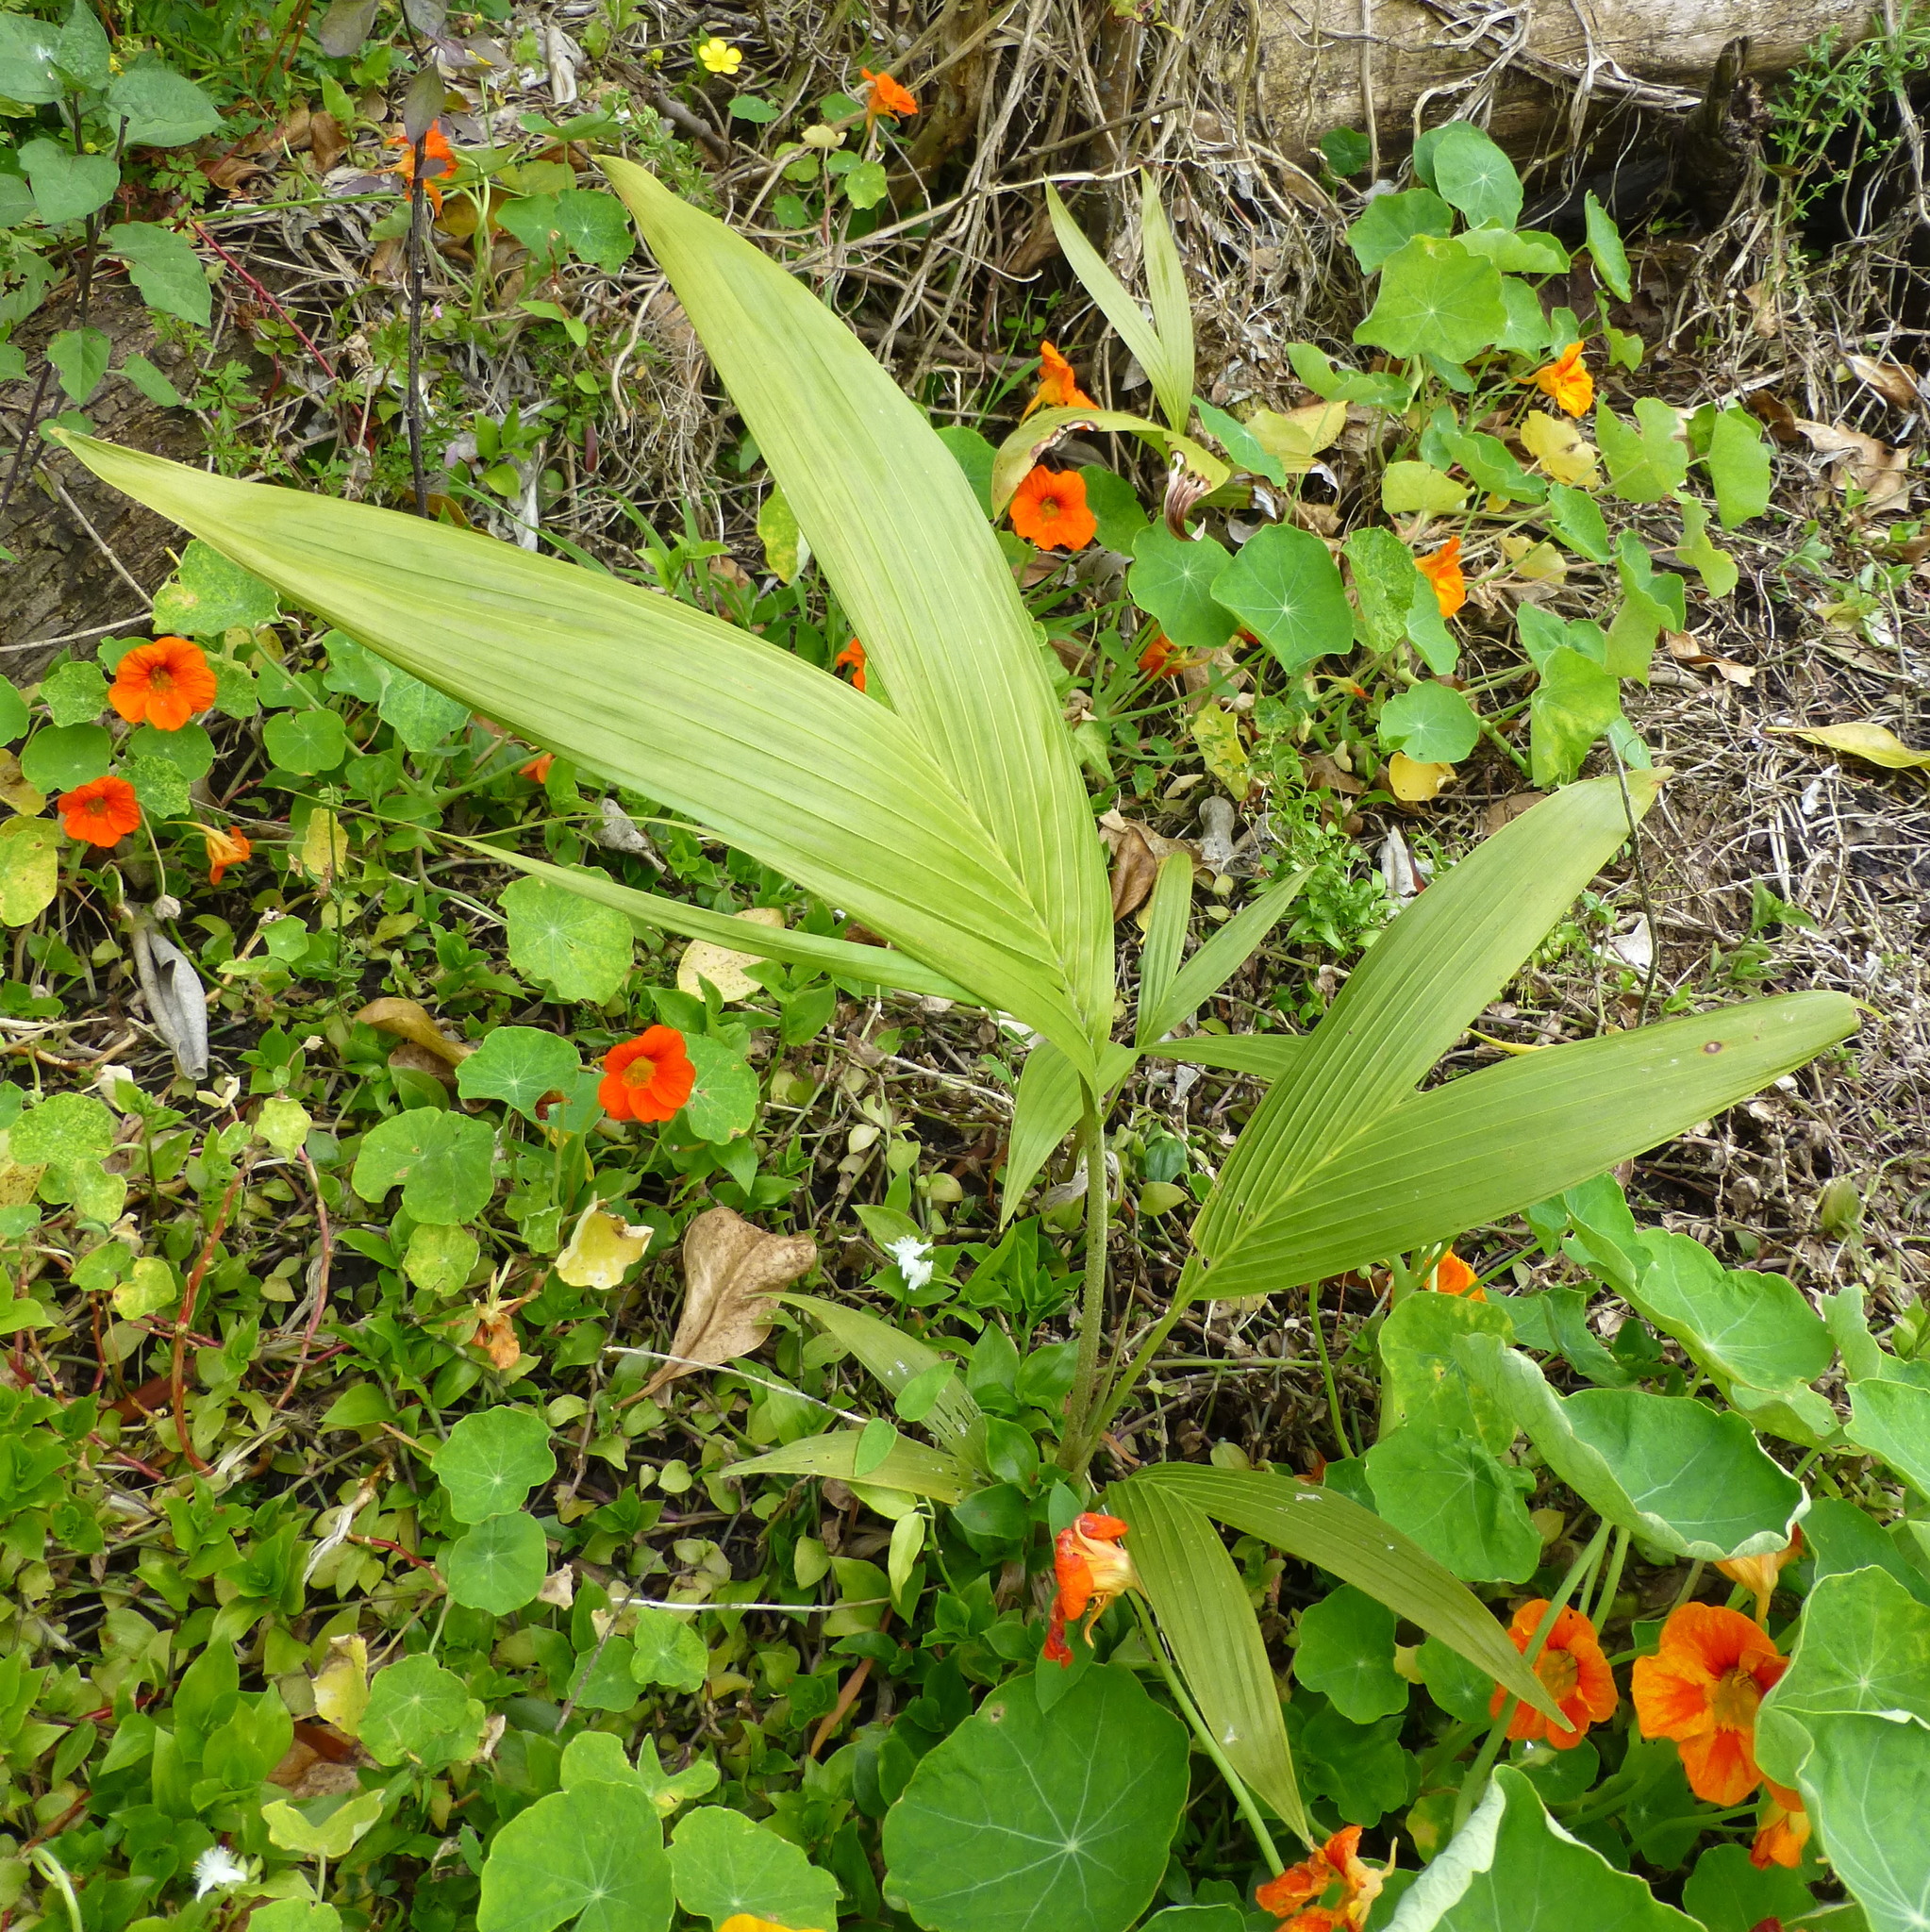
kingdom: Plantae
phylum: Tracheophyta
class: Liliopsida
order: Arecales
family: Arecaceae
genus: Archontophoenix
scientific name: Archontophoenix cunninghamiana
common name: Piccabeen bangalow palm
